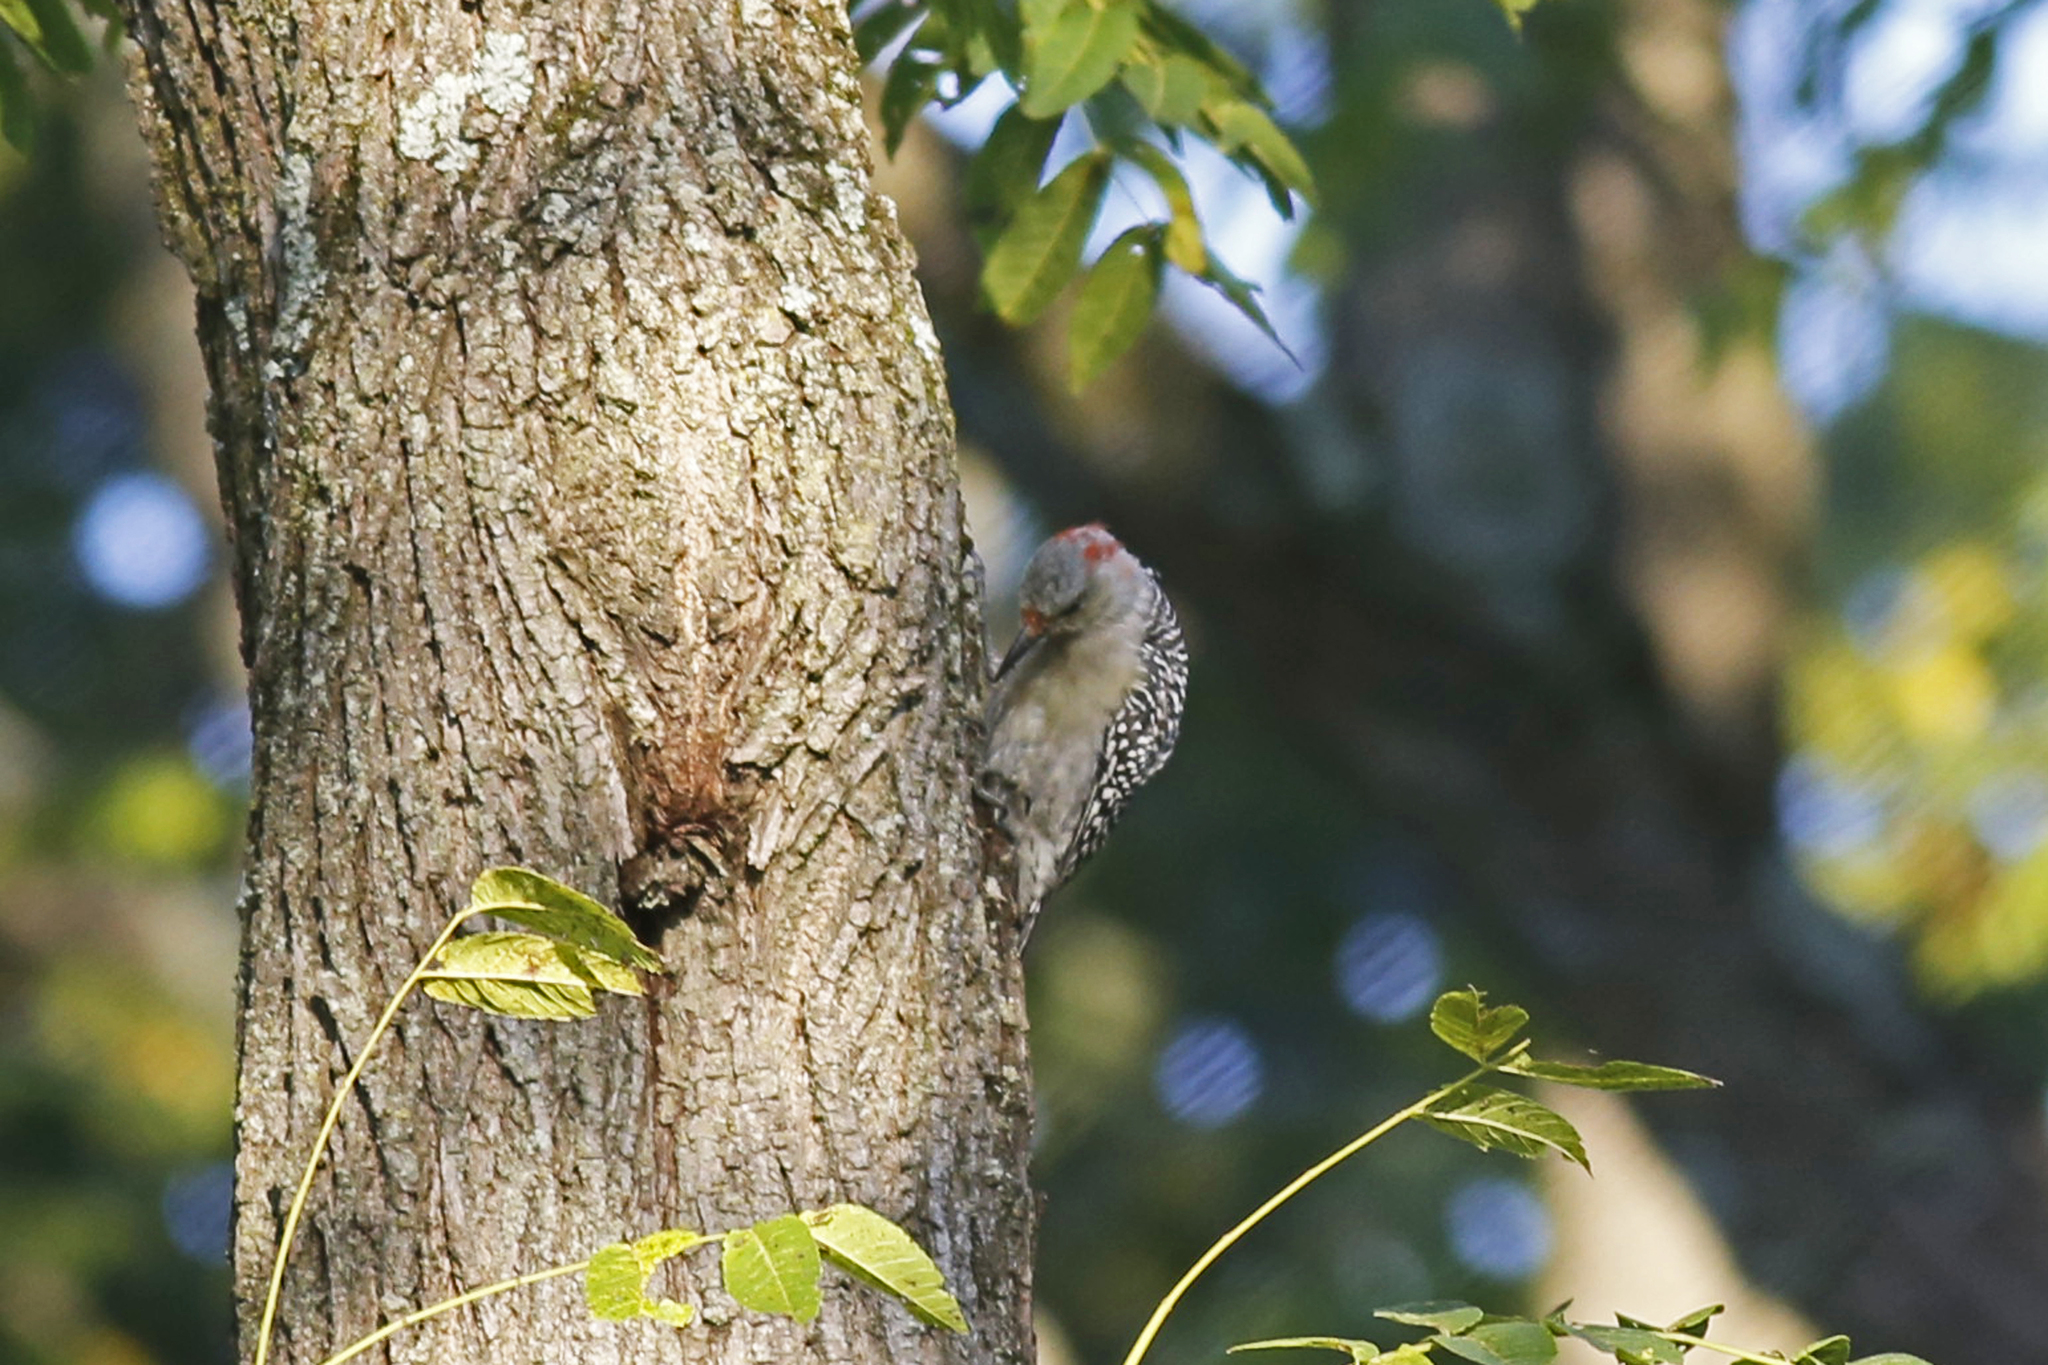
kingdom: Animalia
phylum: Chordata
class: Aves
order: Piciformes
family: Picidae
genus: Melanerpes
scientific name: Melanerpes carolinus
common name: Red-bellied woodpecker
